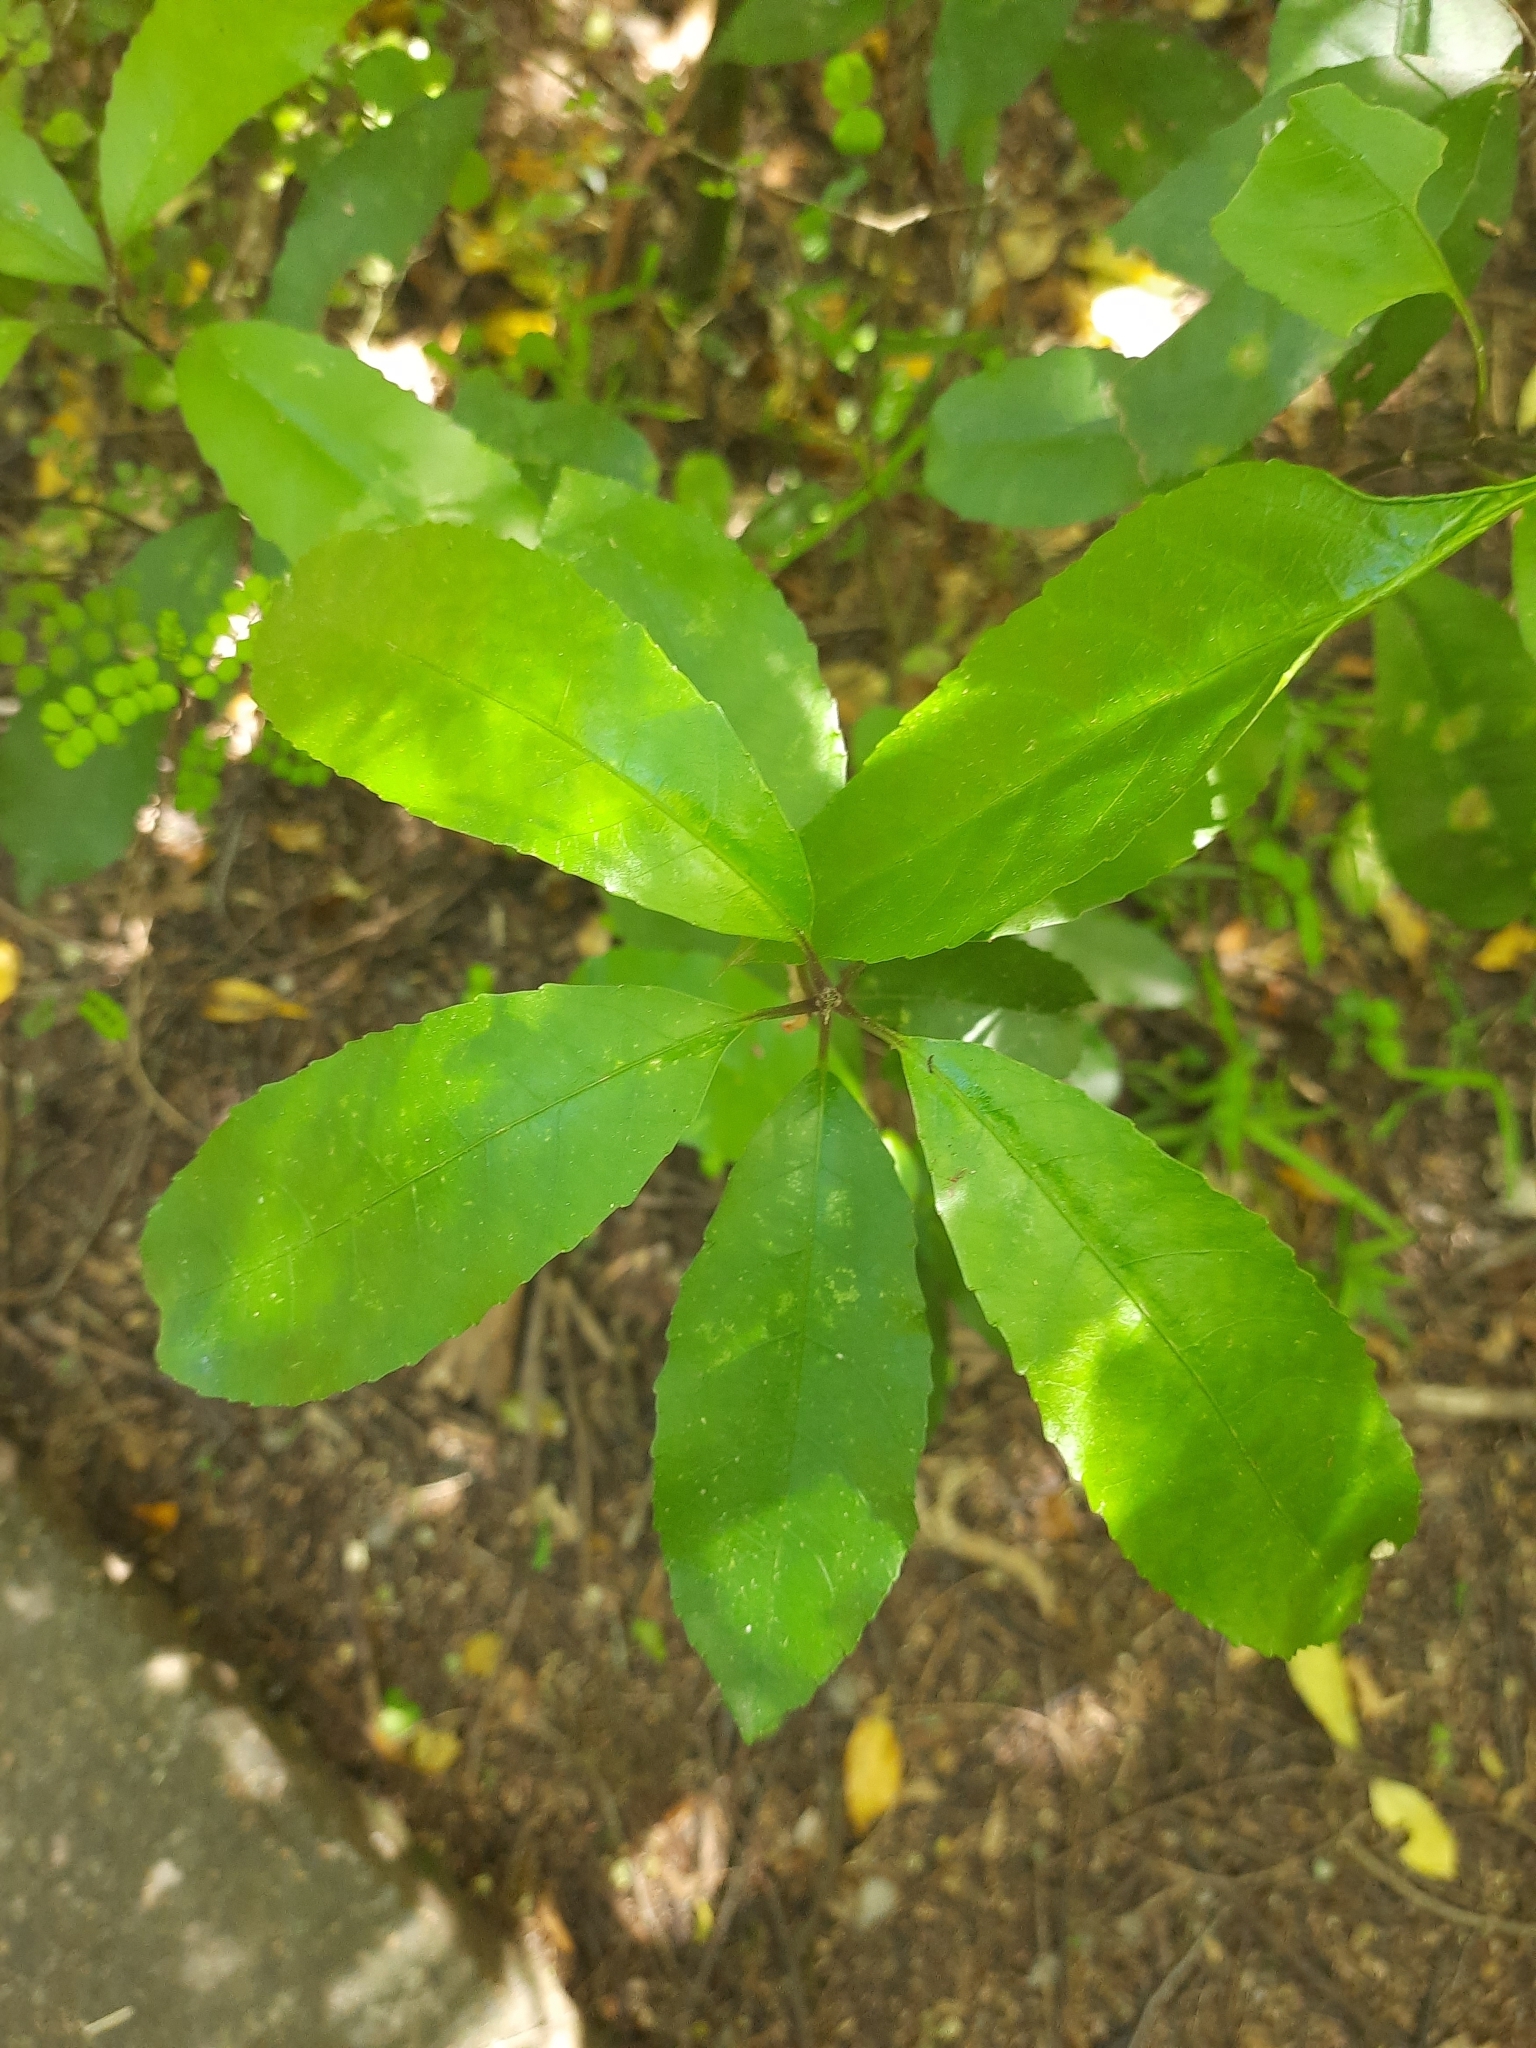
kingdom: Plantae
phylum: Tracheophyta
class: Magnoliopsida
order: Malpighiales
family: Violaceae
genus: Melicytus
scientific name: Melicytus ramiflorus
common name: Mahoe
